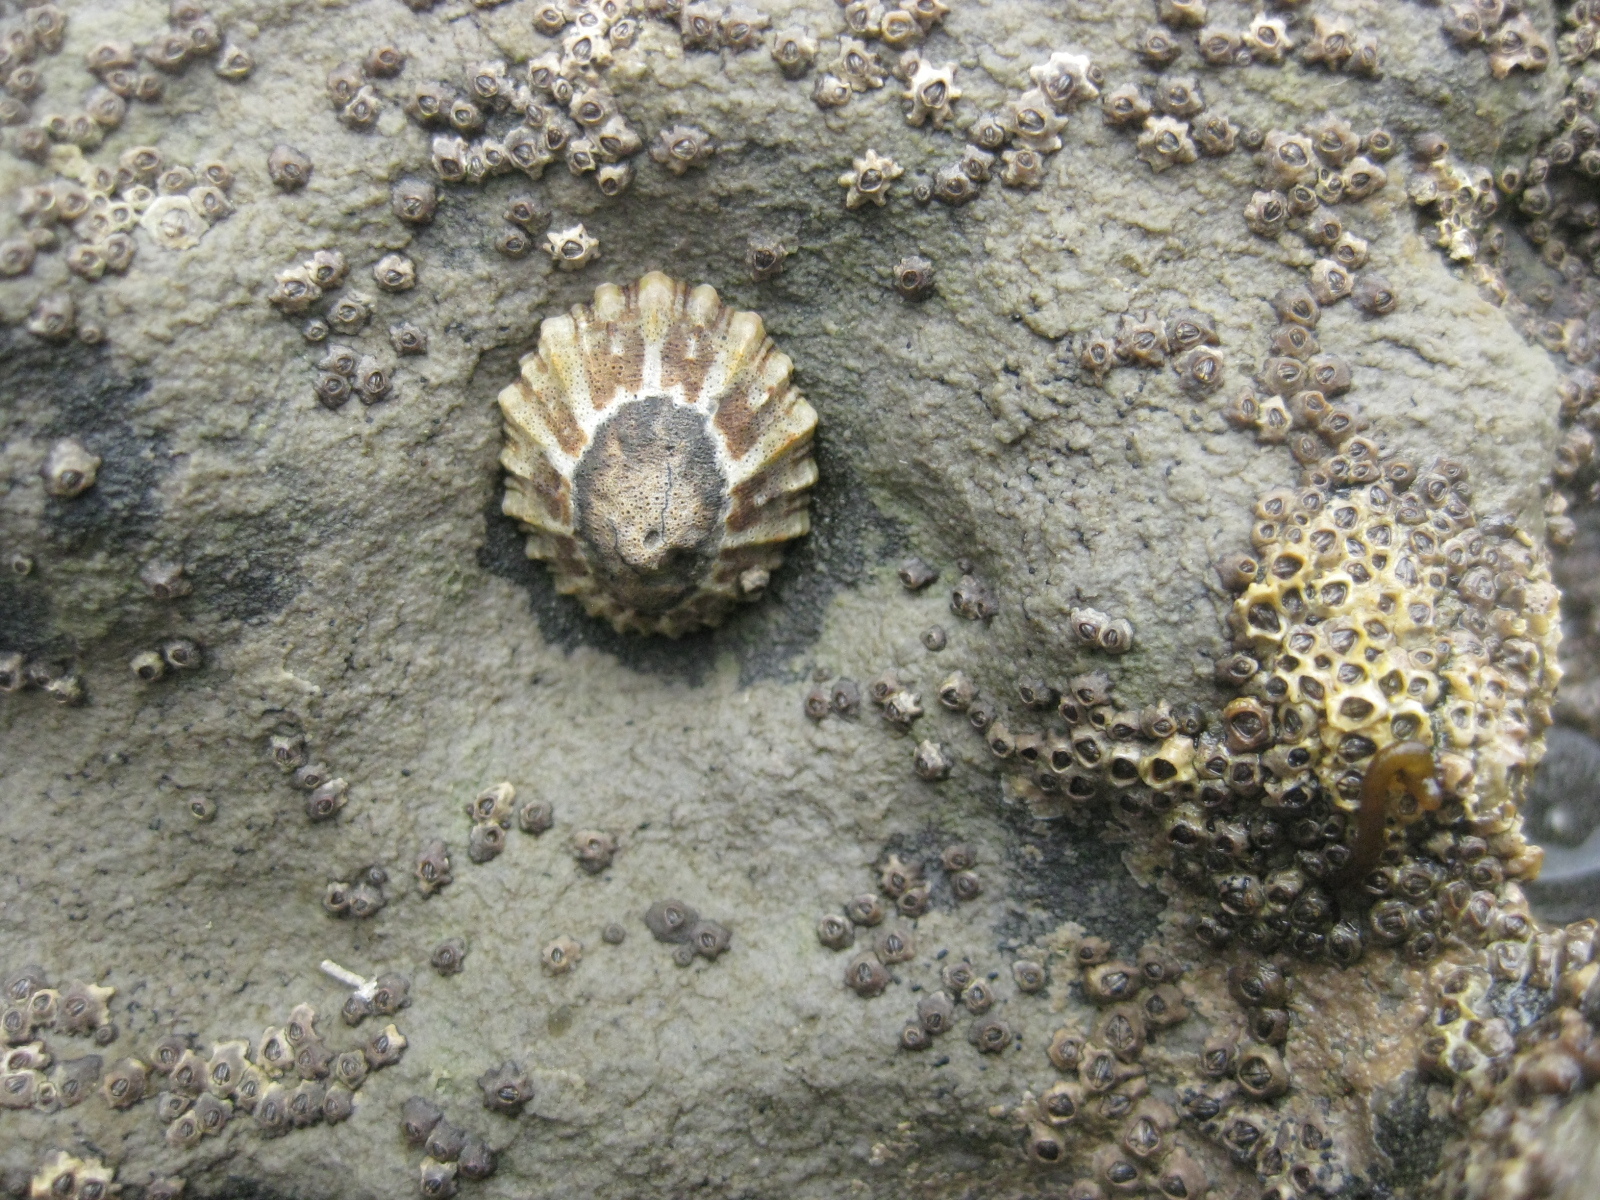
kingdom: Animalia
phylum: Mollusca
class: Gastropoda
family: Nacellidae
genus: Cellana
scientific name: Cellana ornata
